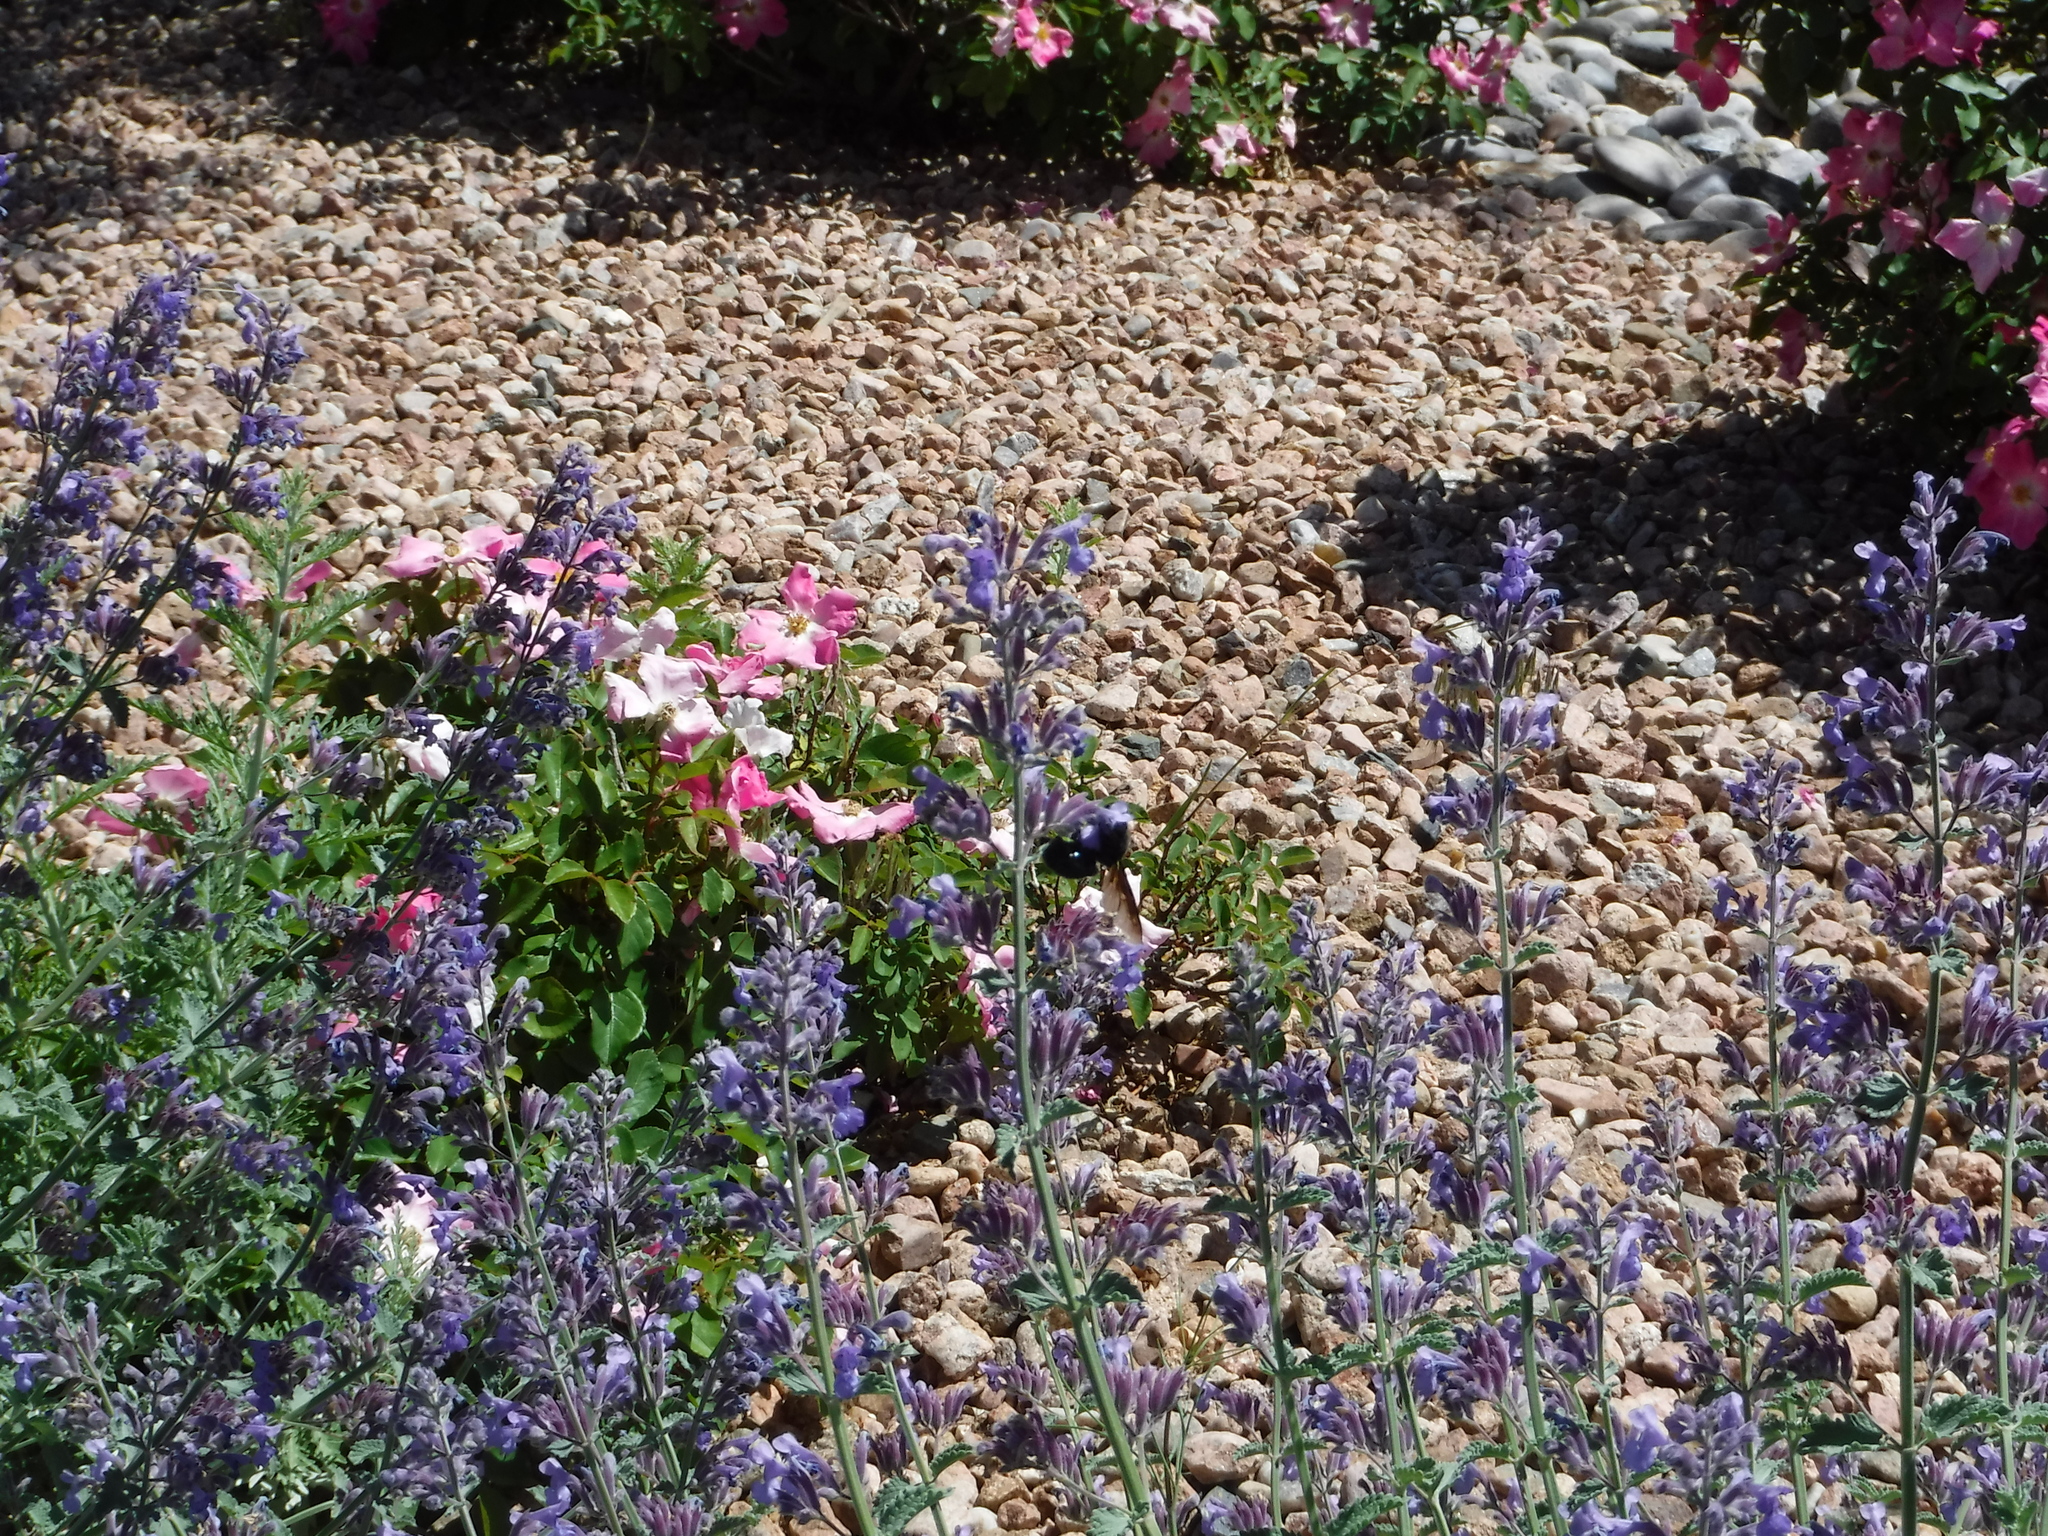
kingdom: Animalia
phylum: Arthropoda
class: Insecta
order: Hymenoptera
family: Apidae
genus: Xylocopa
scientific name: Xylocopa californica
